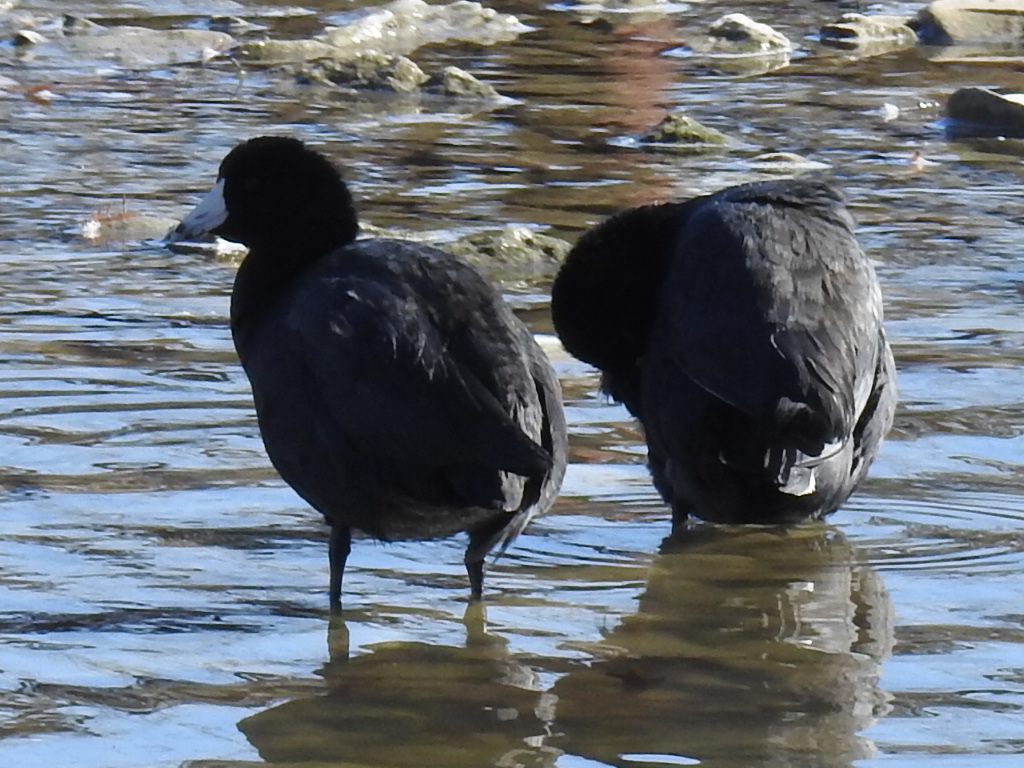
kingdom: Animalia
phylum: Chordata
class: Aves
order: Gruiformes
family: Rallidae
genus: Fulica
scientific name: Fulica americana
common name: American coot
